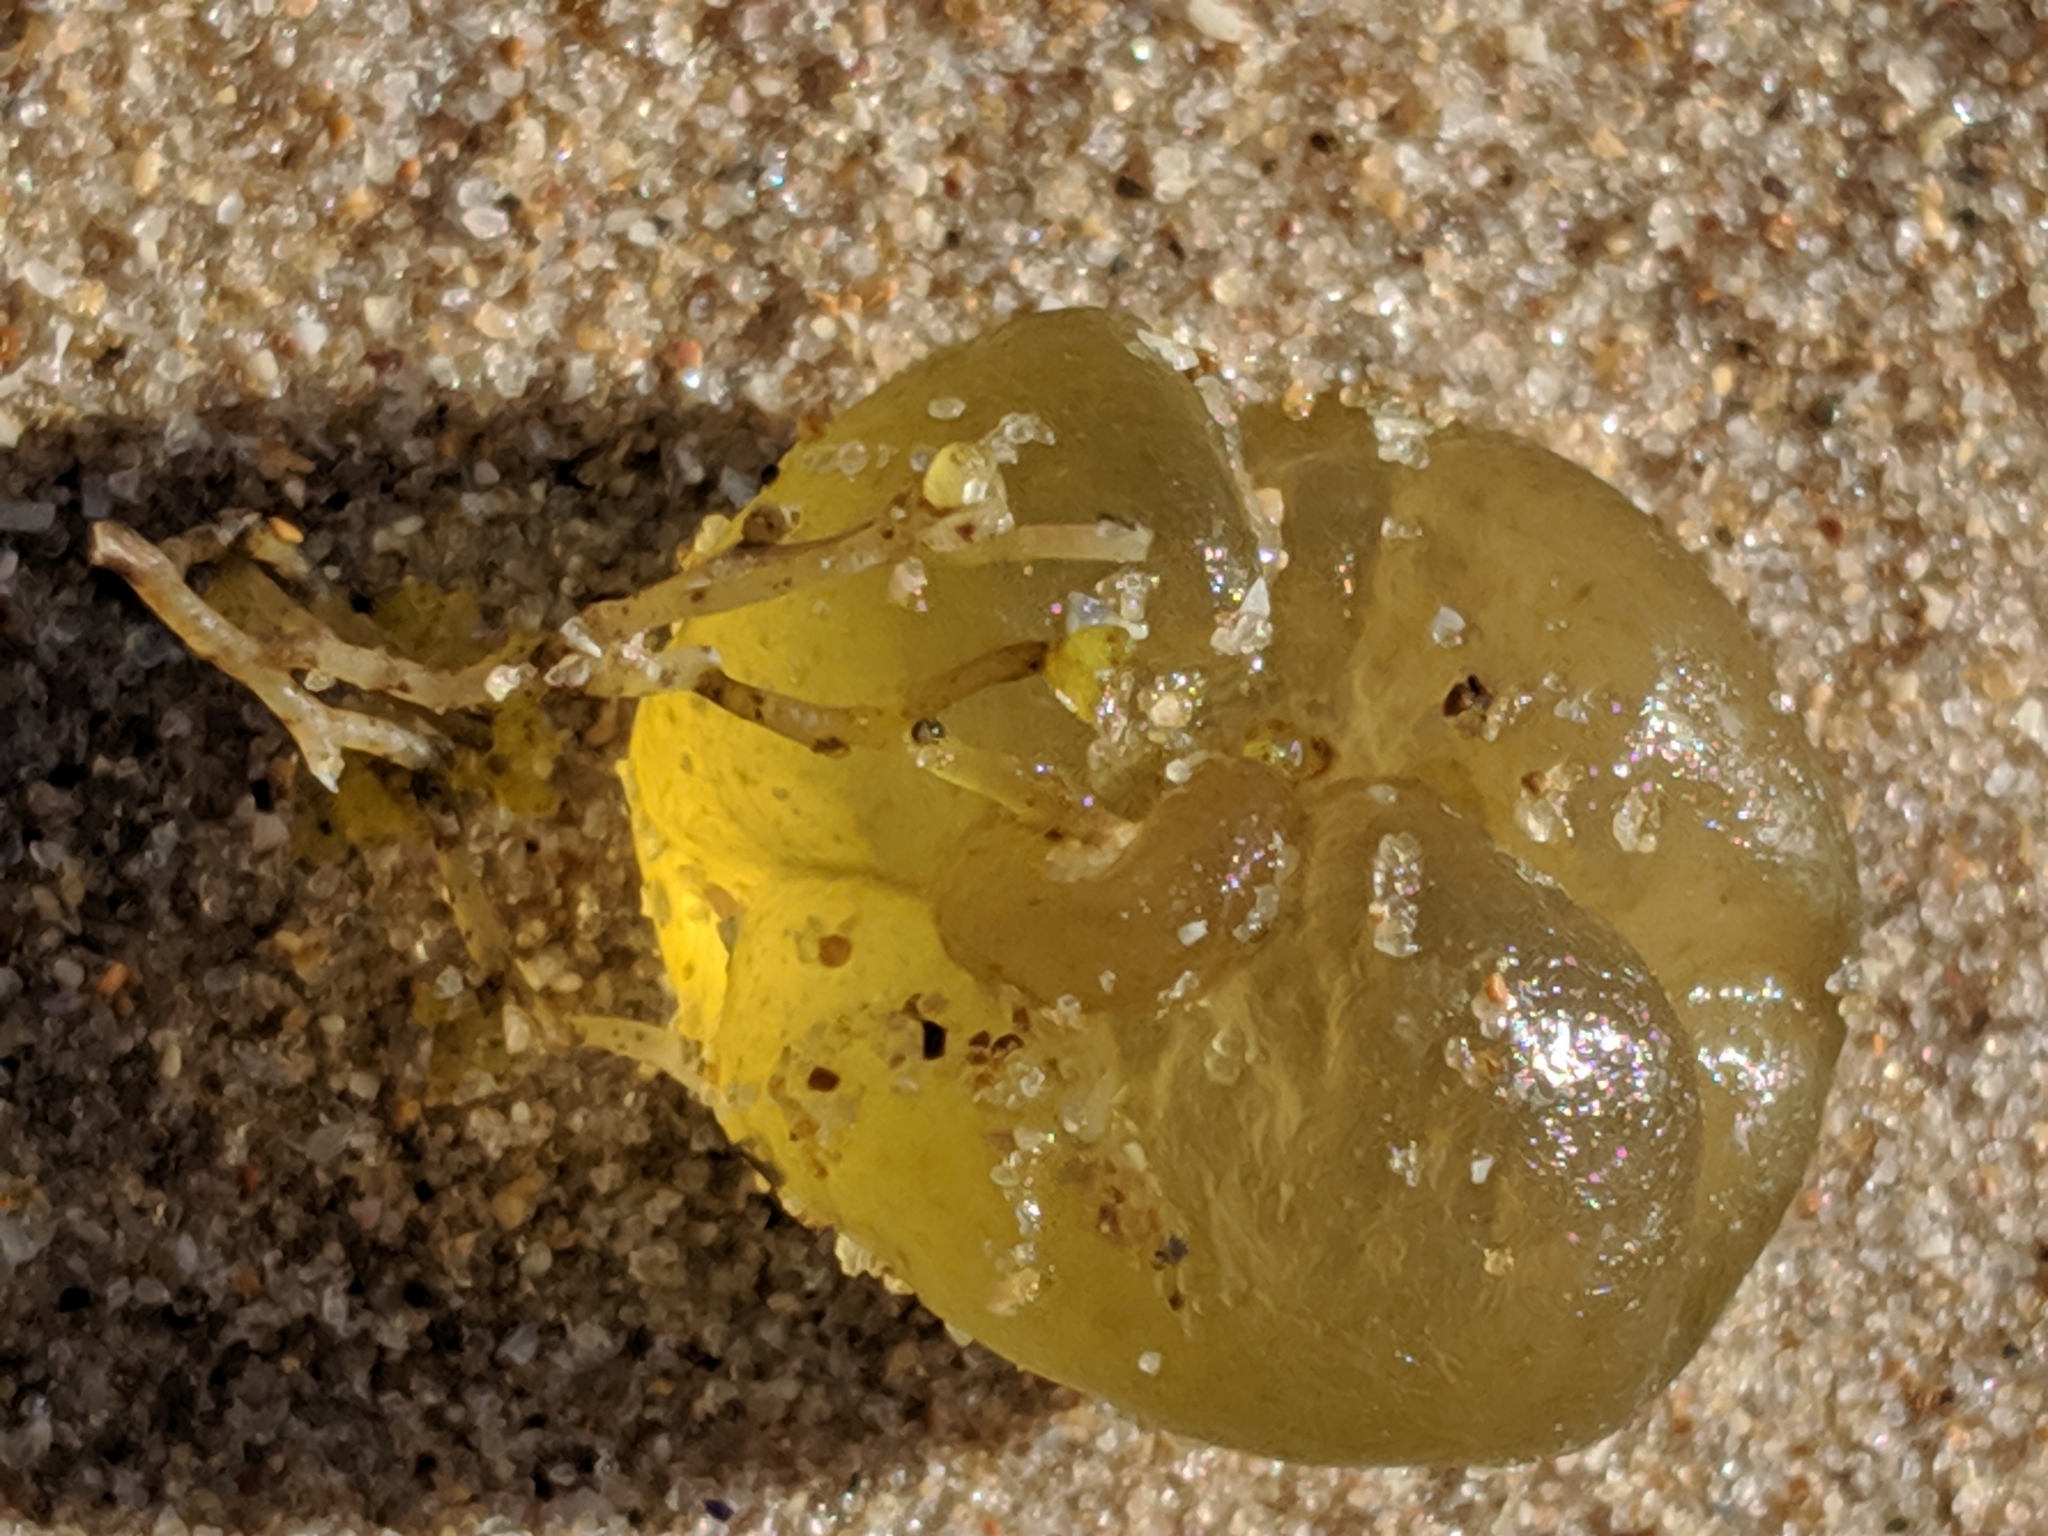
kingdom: Chromista
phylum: Ochrophyta
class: Phaeophyceae
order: Scytosiphonales
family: Scytosiphonaceae
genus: Colpomenia
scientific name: Colpomenia peregrina
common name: Oyster thief
